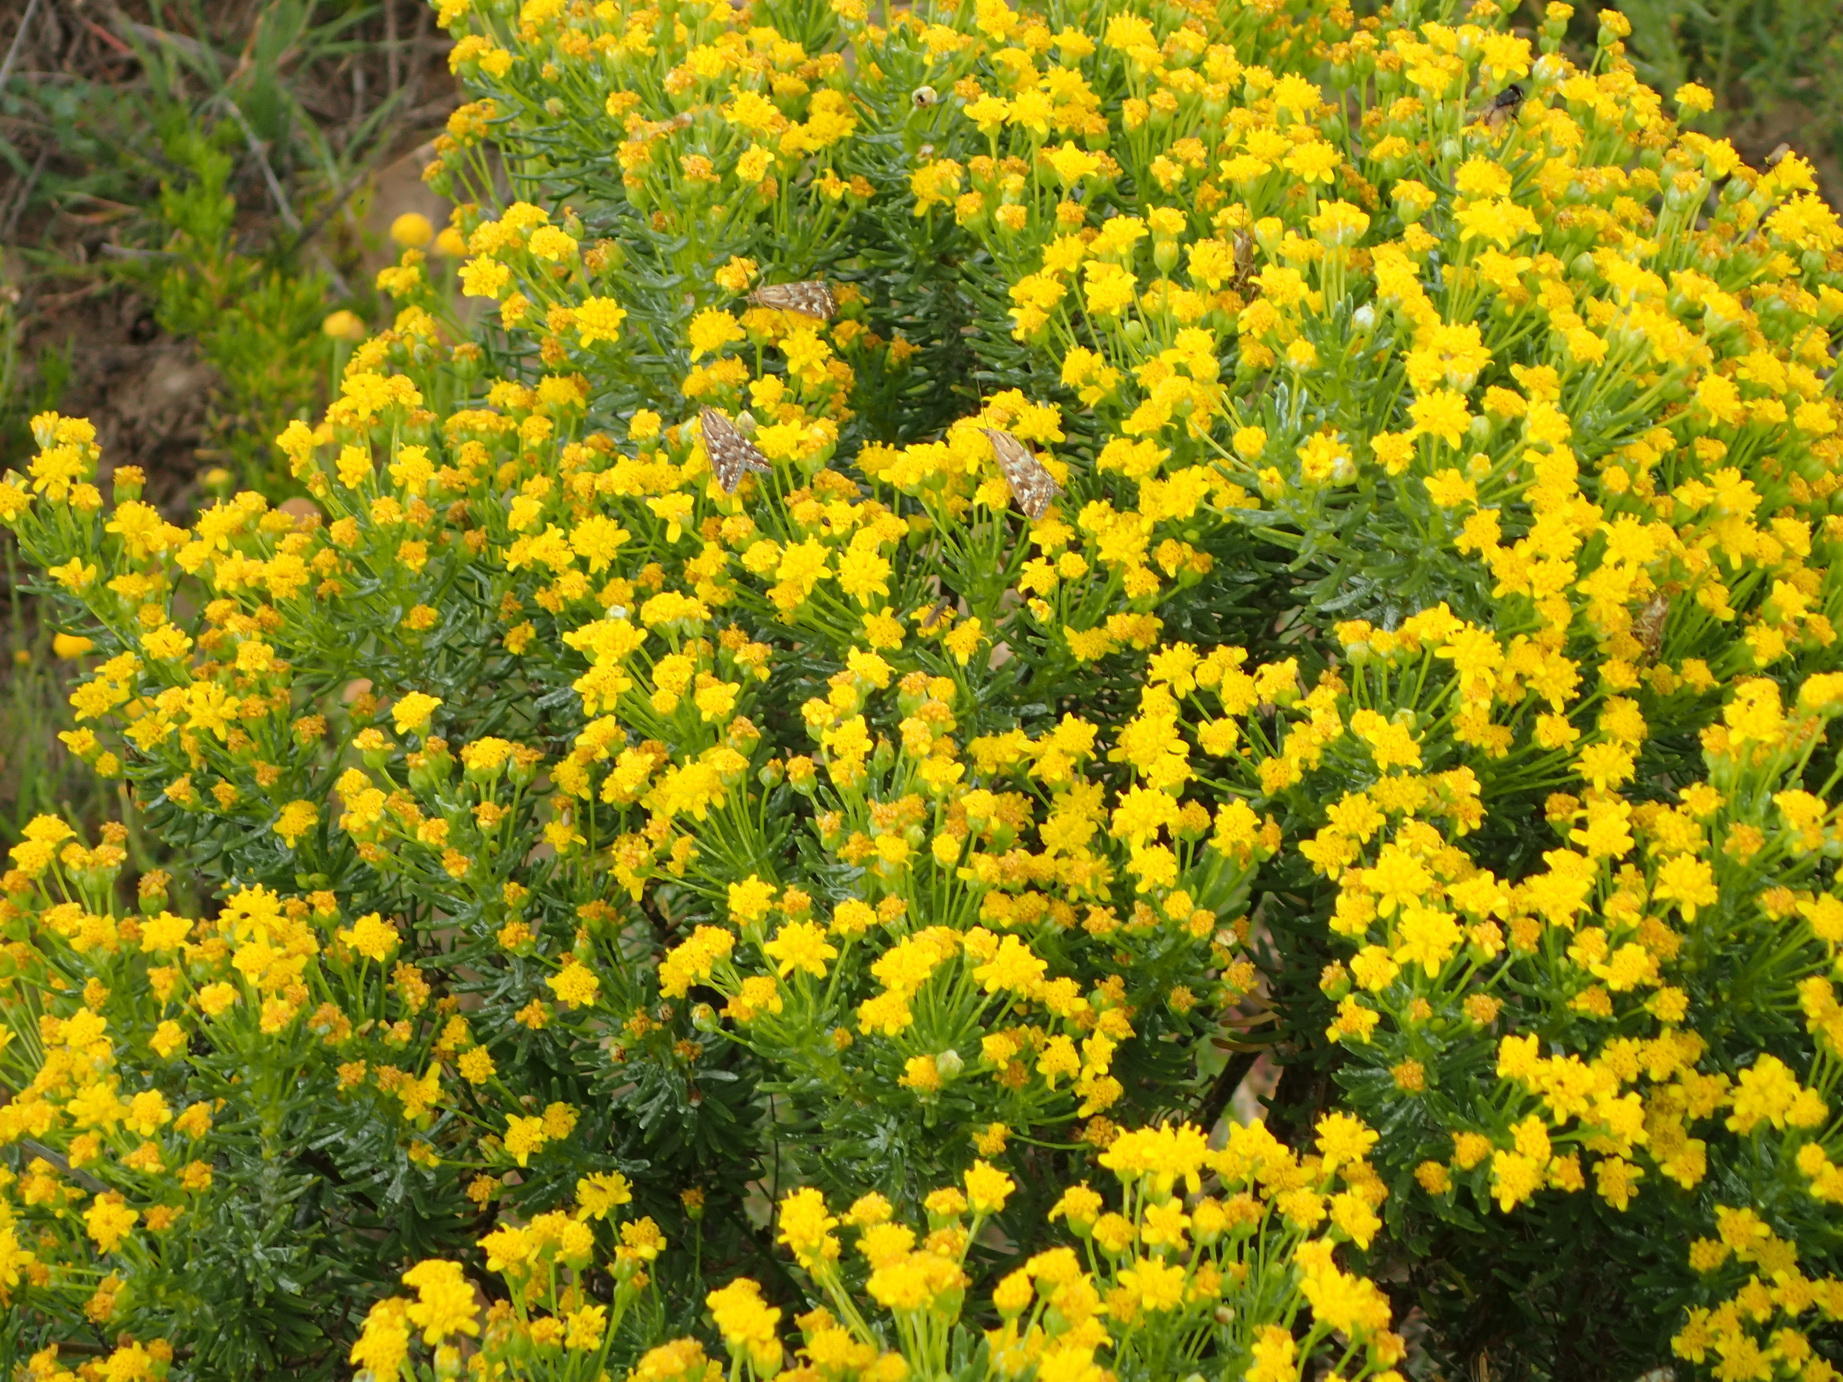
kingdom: Plantae
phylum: Tracheophyta
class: Magnoliopsida
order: Asterales
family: Asteraceae
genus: Euryops
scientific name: Euryops floribundus
